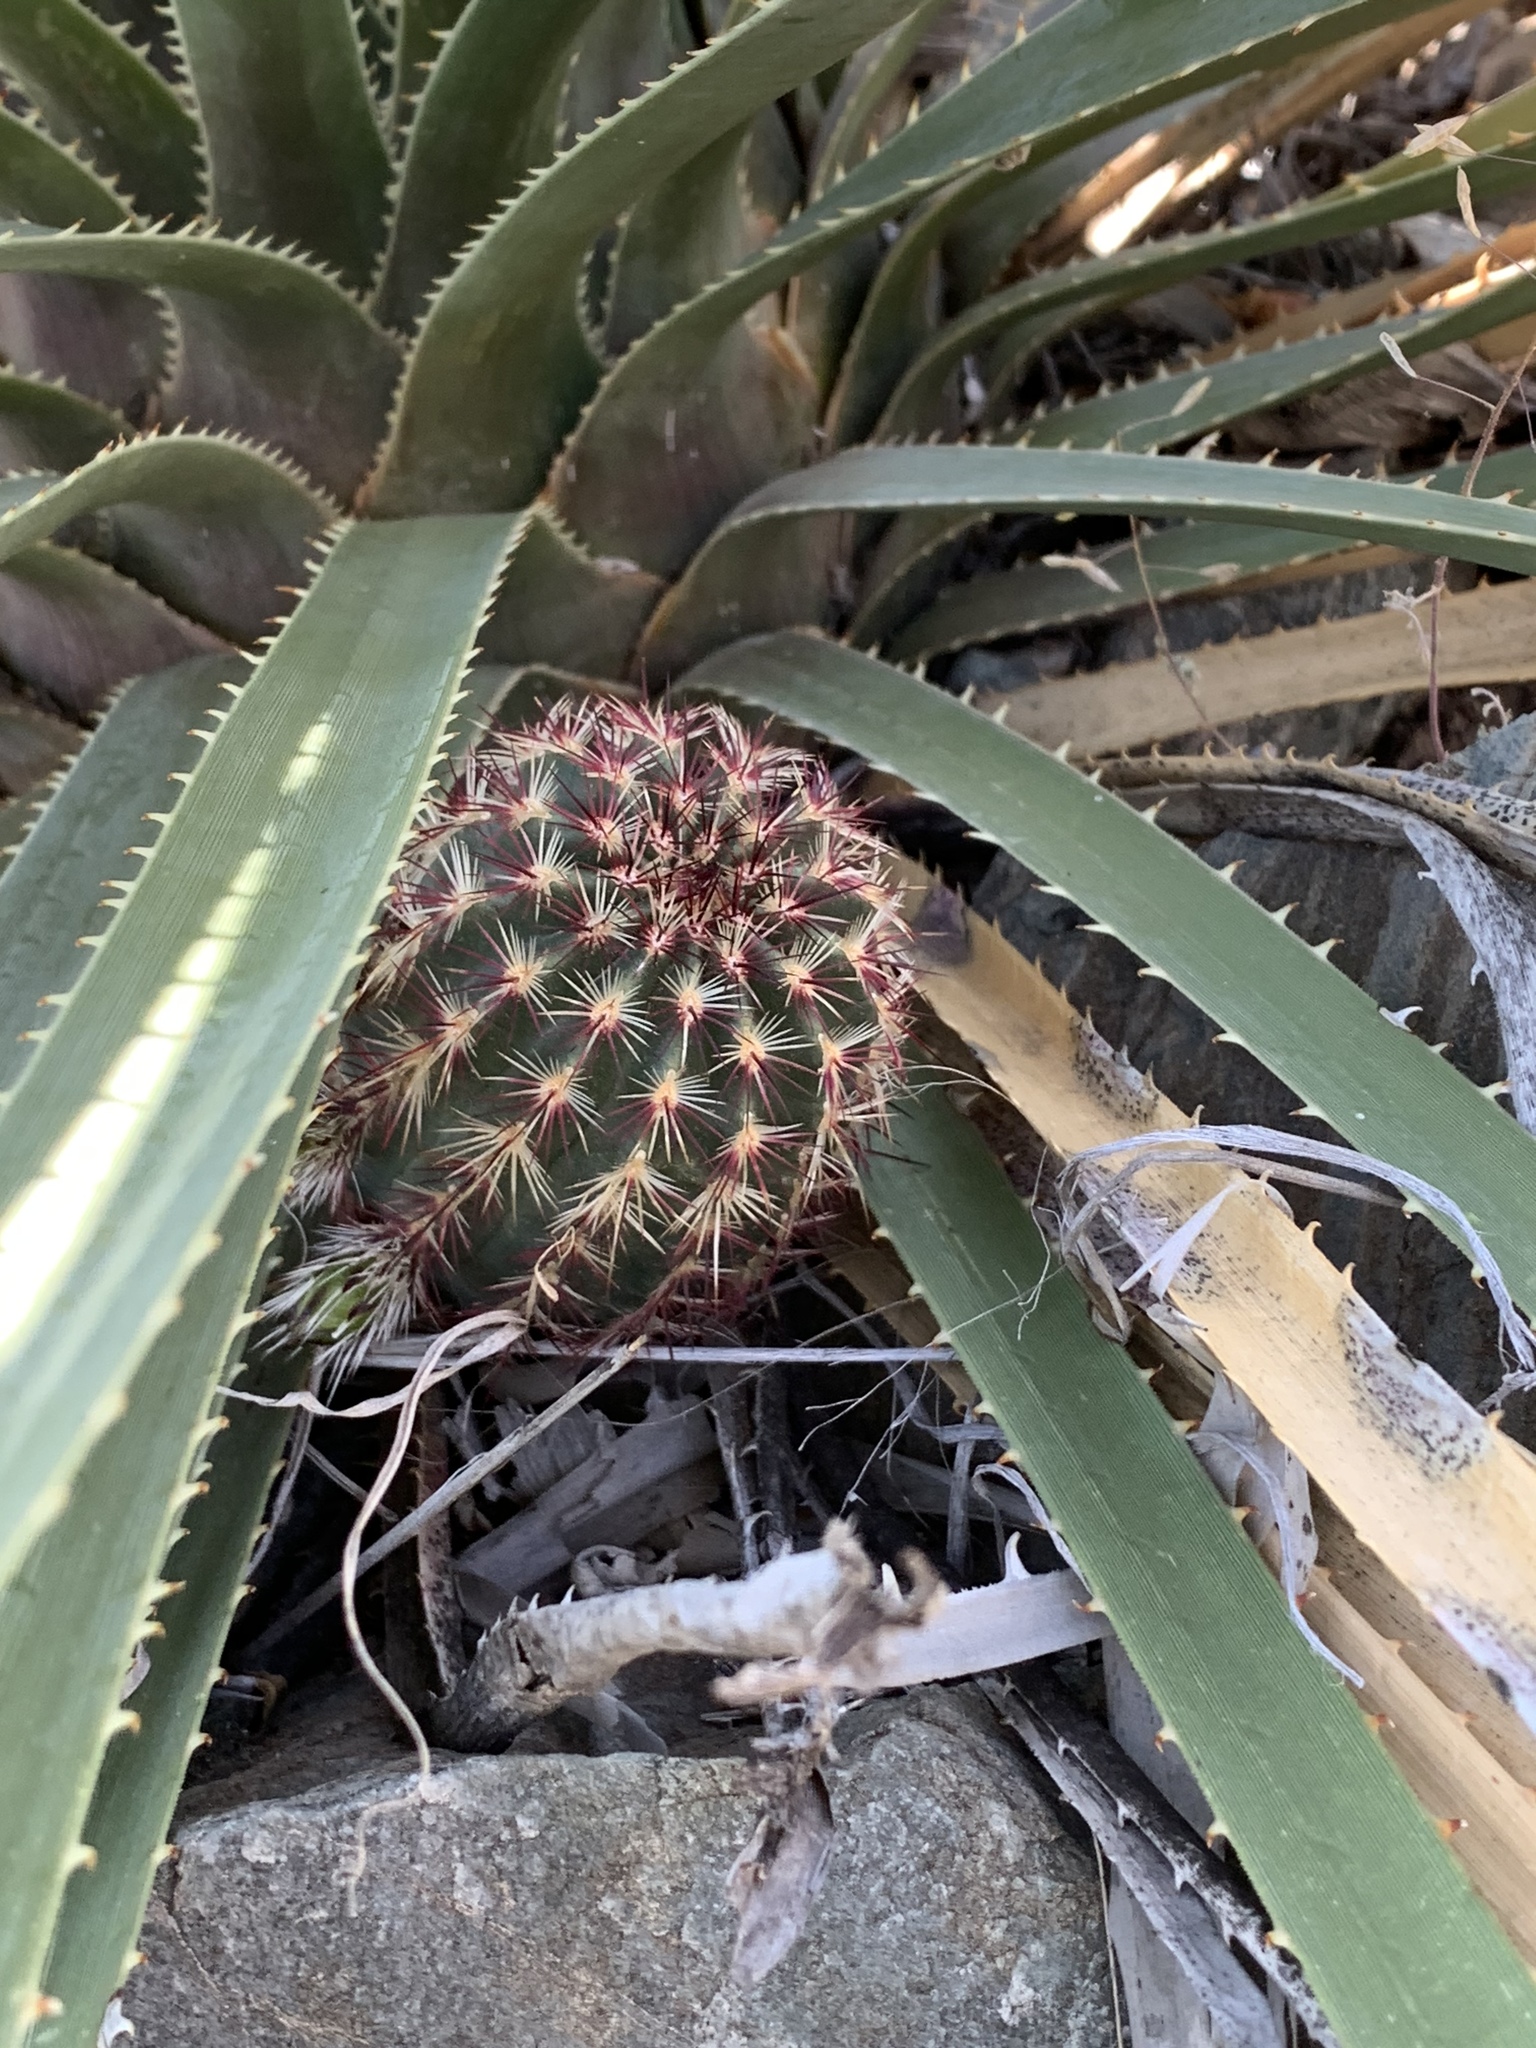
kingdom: Plantae
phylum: Tracheophyta
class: Magnoliopsida
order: Caryophyllales
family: Cactaceae
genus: Echinocereus
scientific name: Echinocereus viridiflorus
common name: Nylon hedgehog cactus
